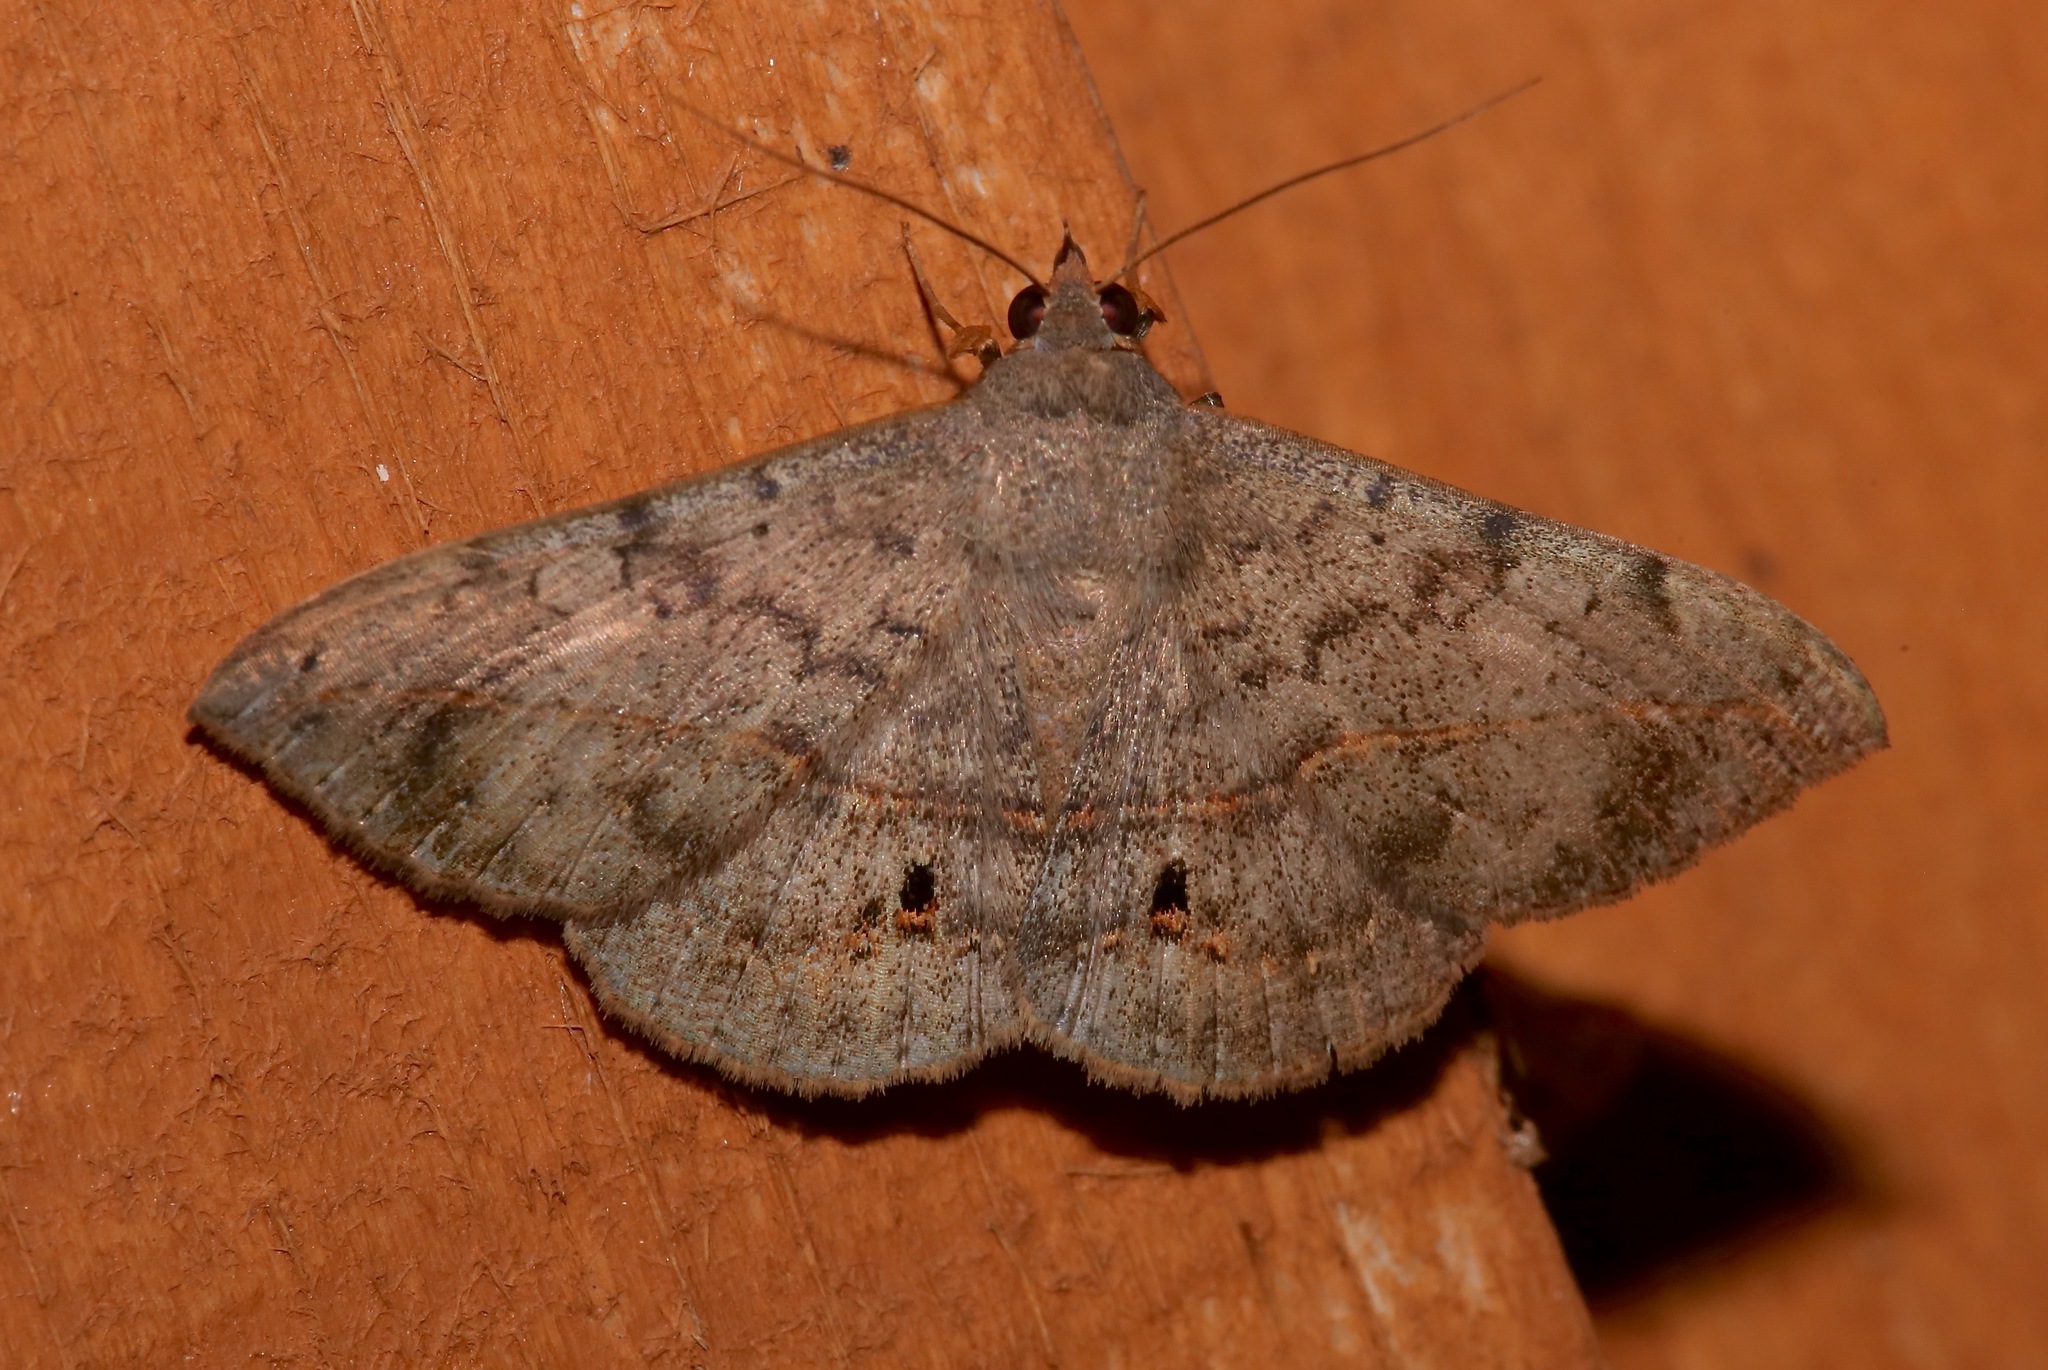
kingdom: Animalia
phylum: Arthropoda
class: Insecta
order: Lepidoptera
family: Erebidae
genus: Anticarsia
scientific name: Anticarsia gemmatalis
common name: Cutworm moth
